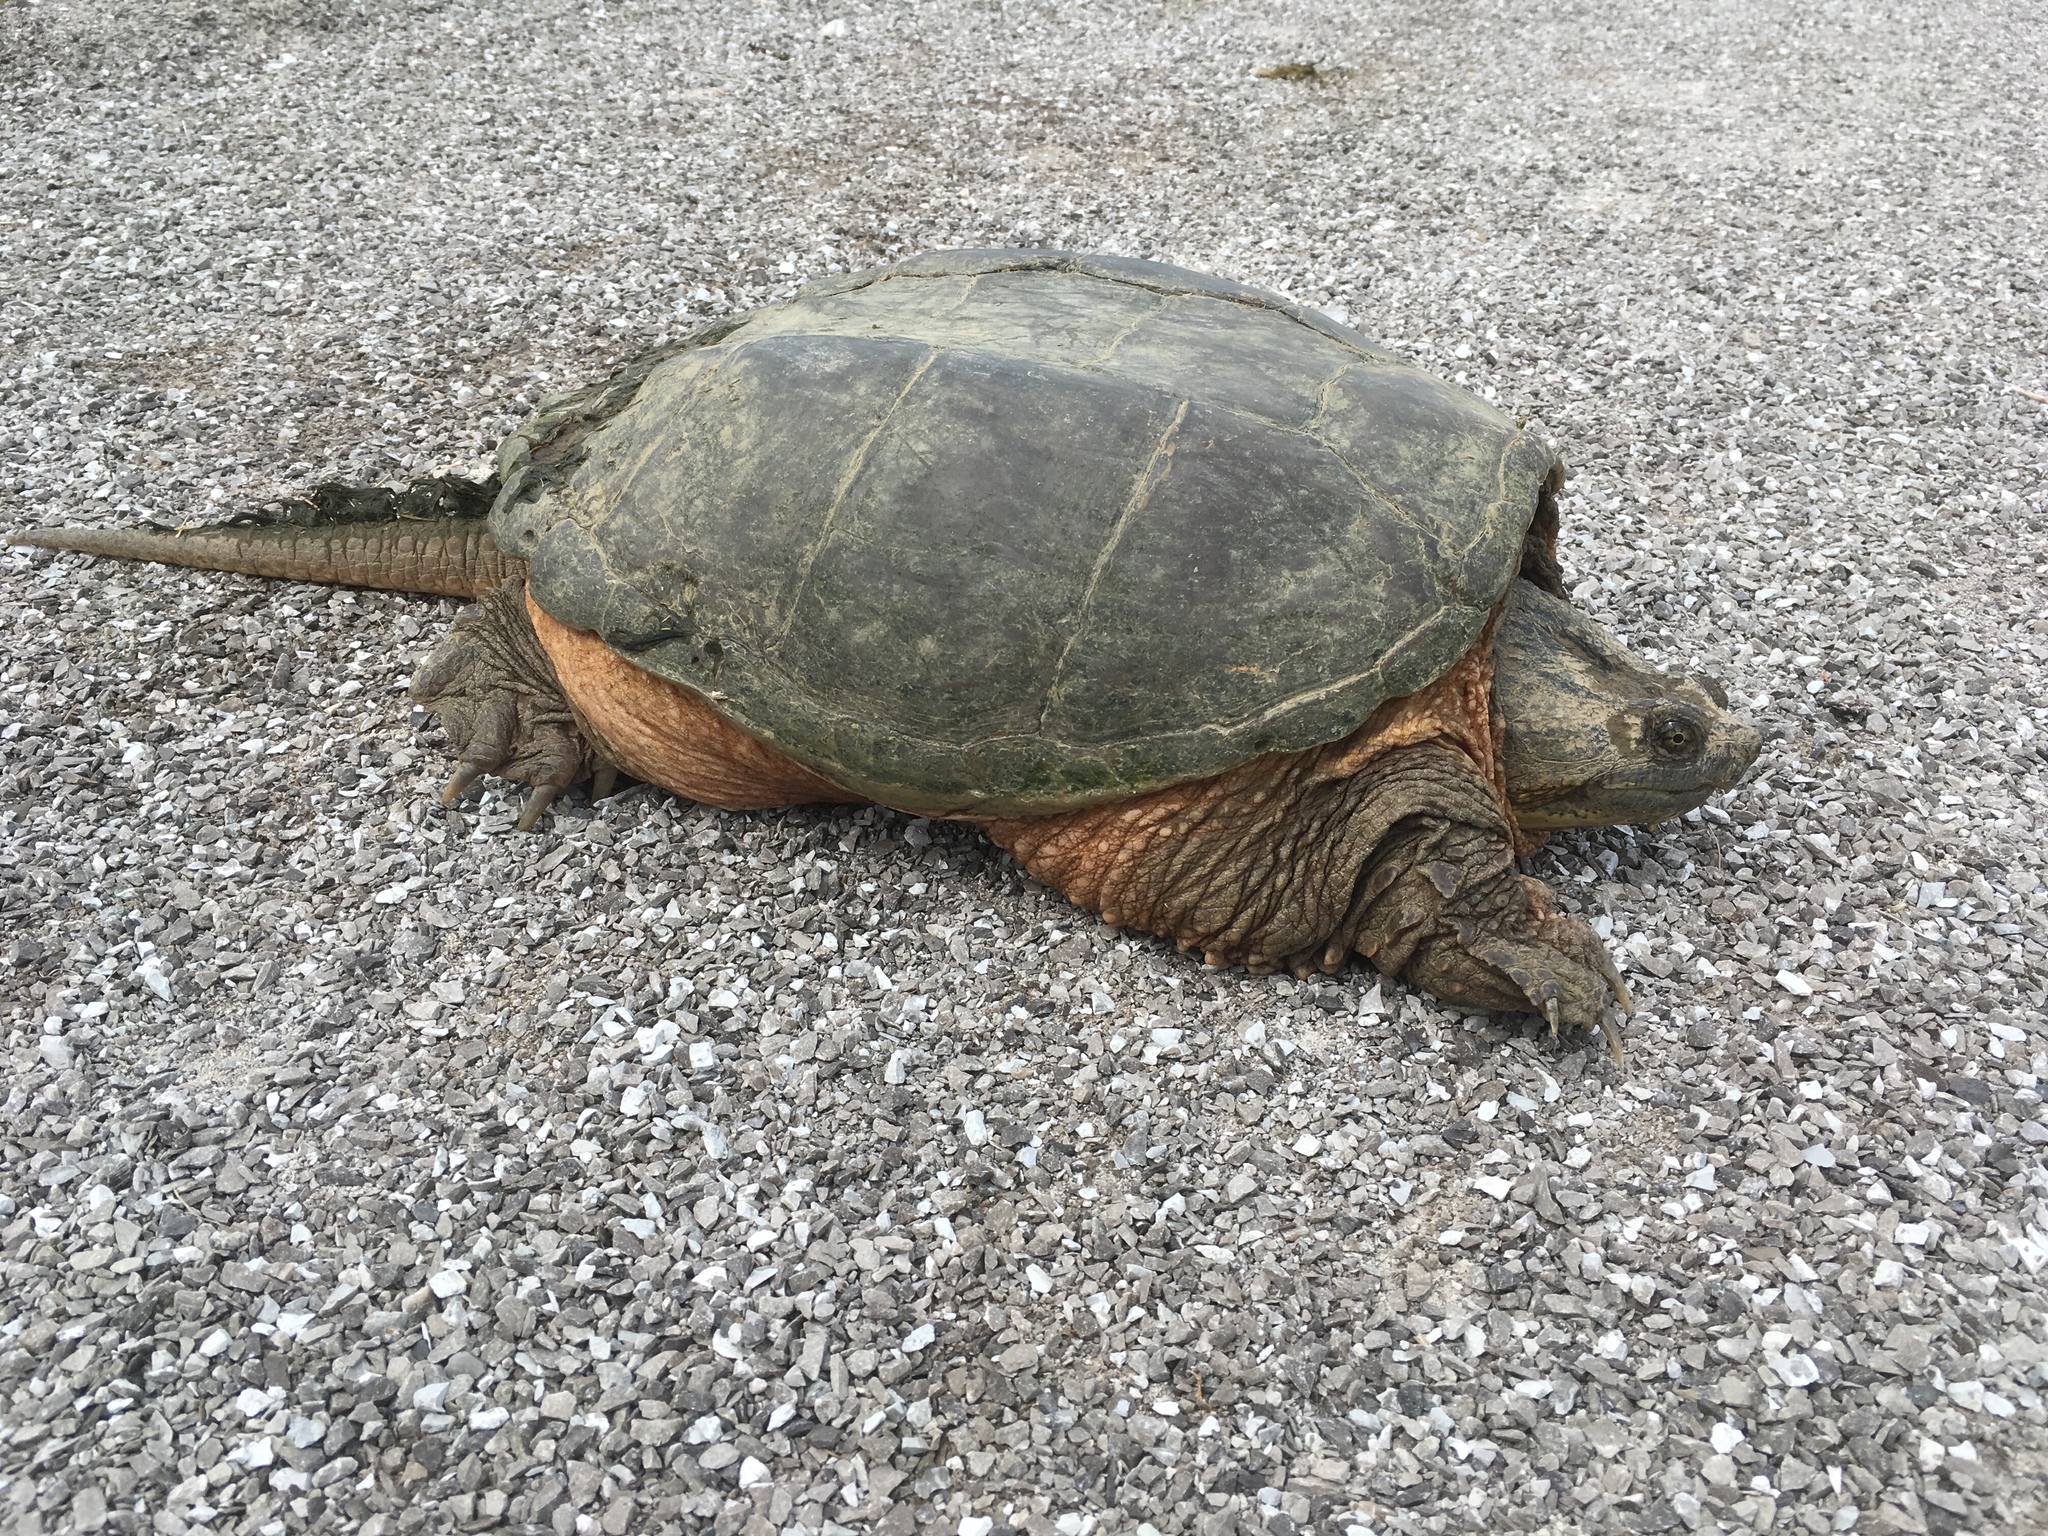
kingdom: Animalia
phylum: Chordata
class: Testudines
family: Chelydridae
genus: Chelydra
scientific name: Chelydra serpentina
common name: Common snapping turtle
